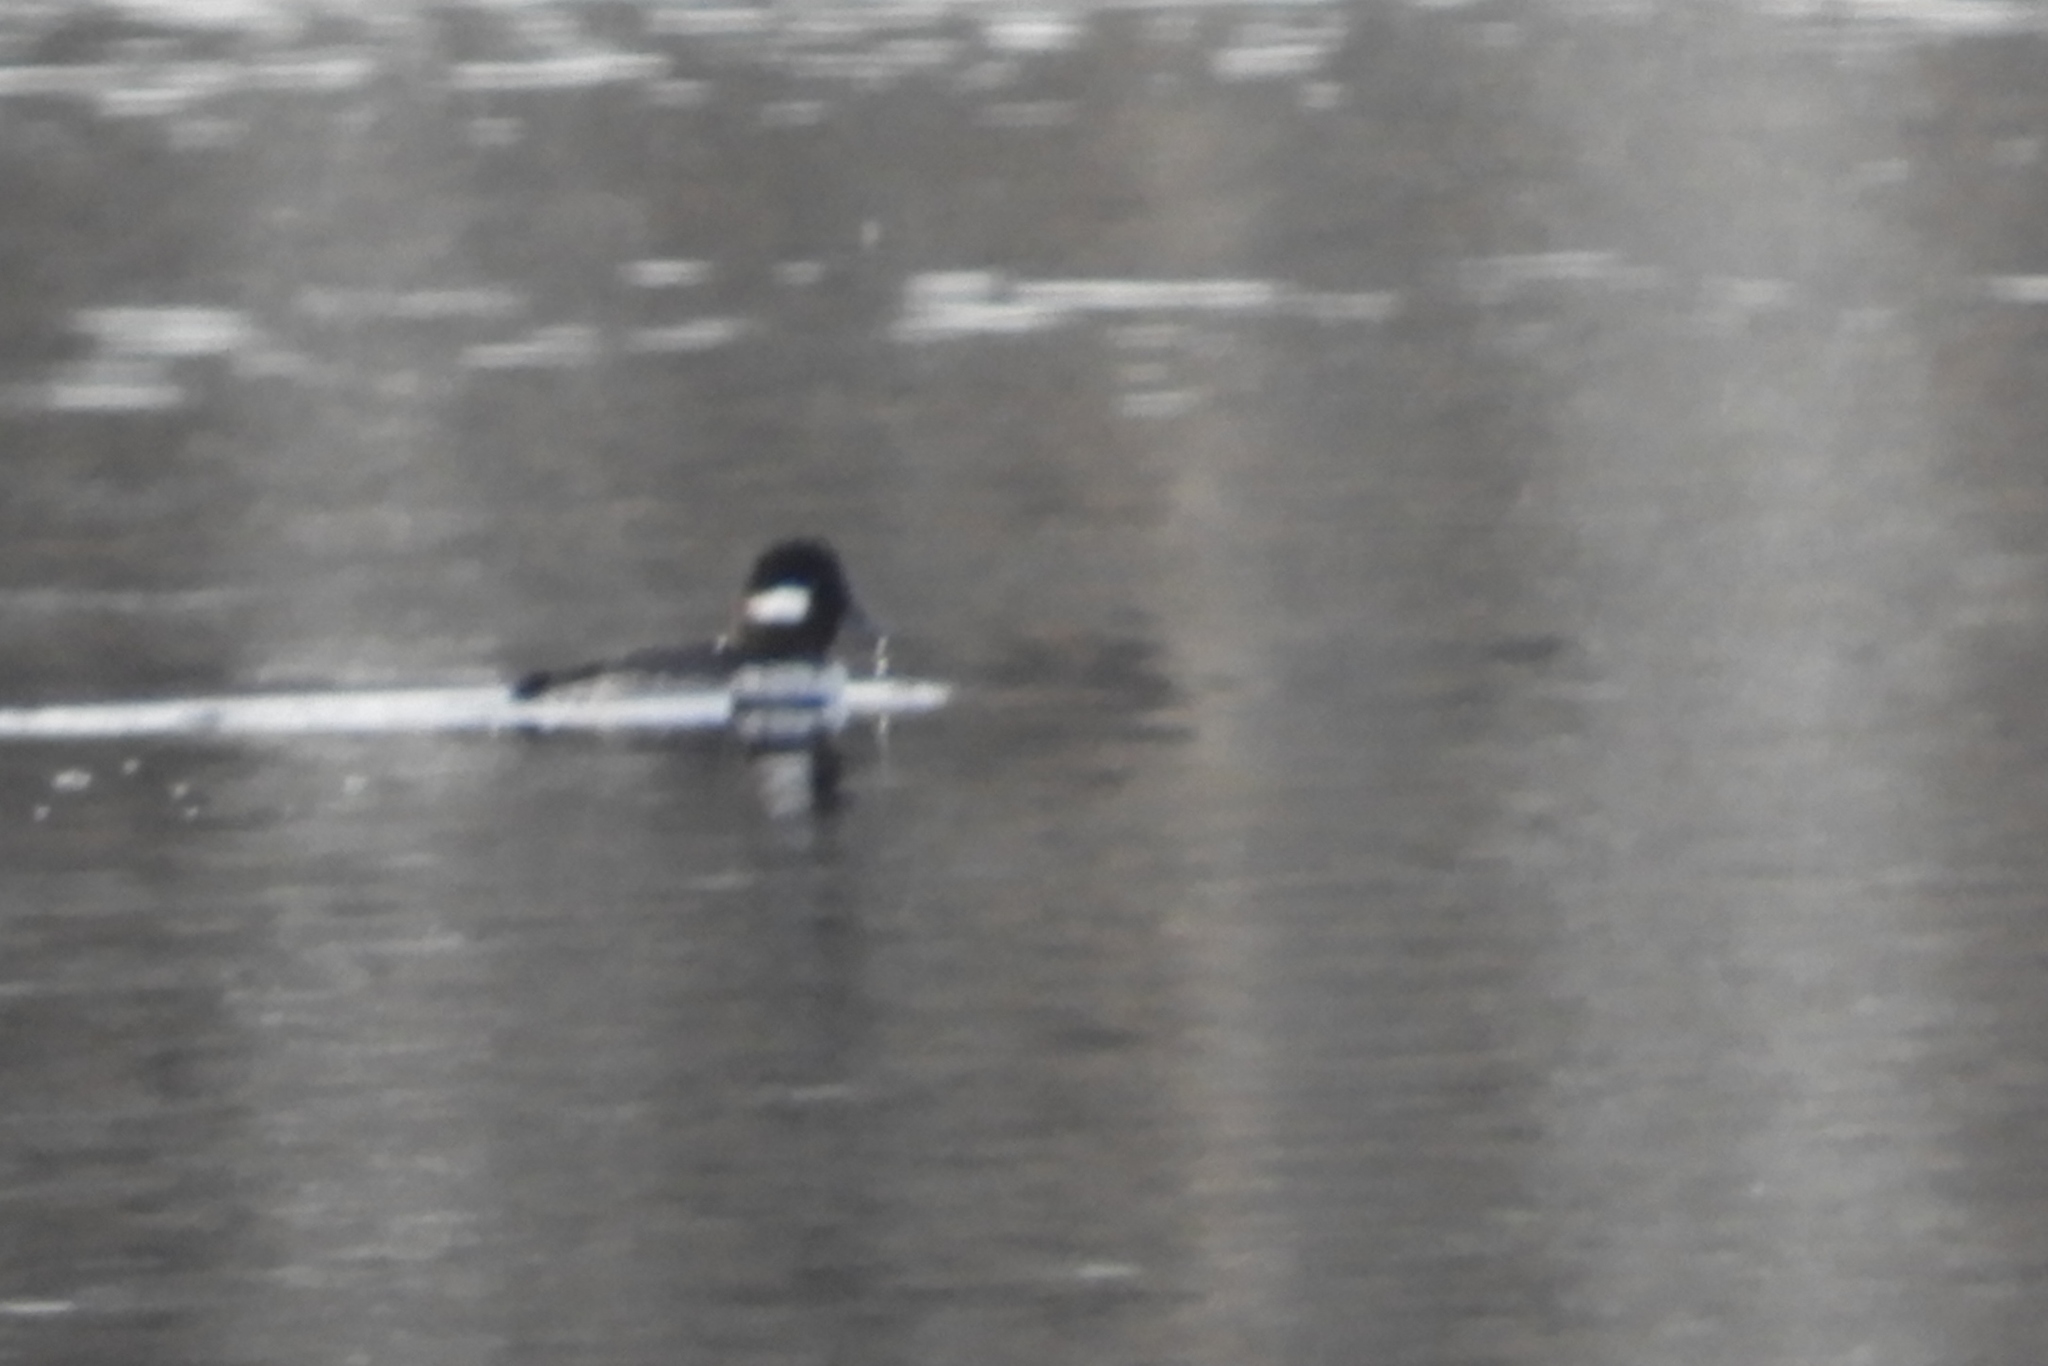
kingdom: Animalia
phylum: Chordata
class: Aves
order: Anseriformes
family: Anatidae
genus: Bucephala
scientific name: Bucephala albeola
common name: Bufflehead
